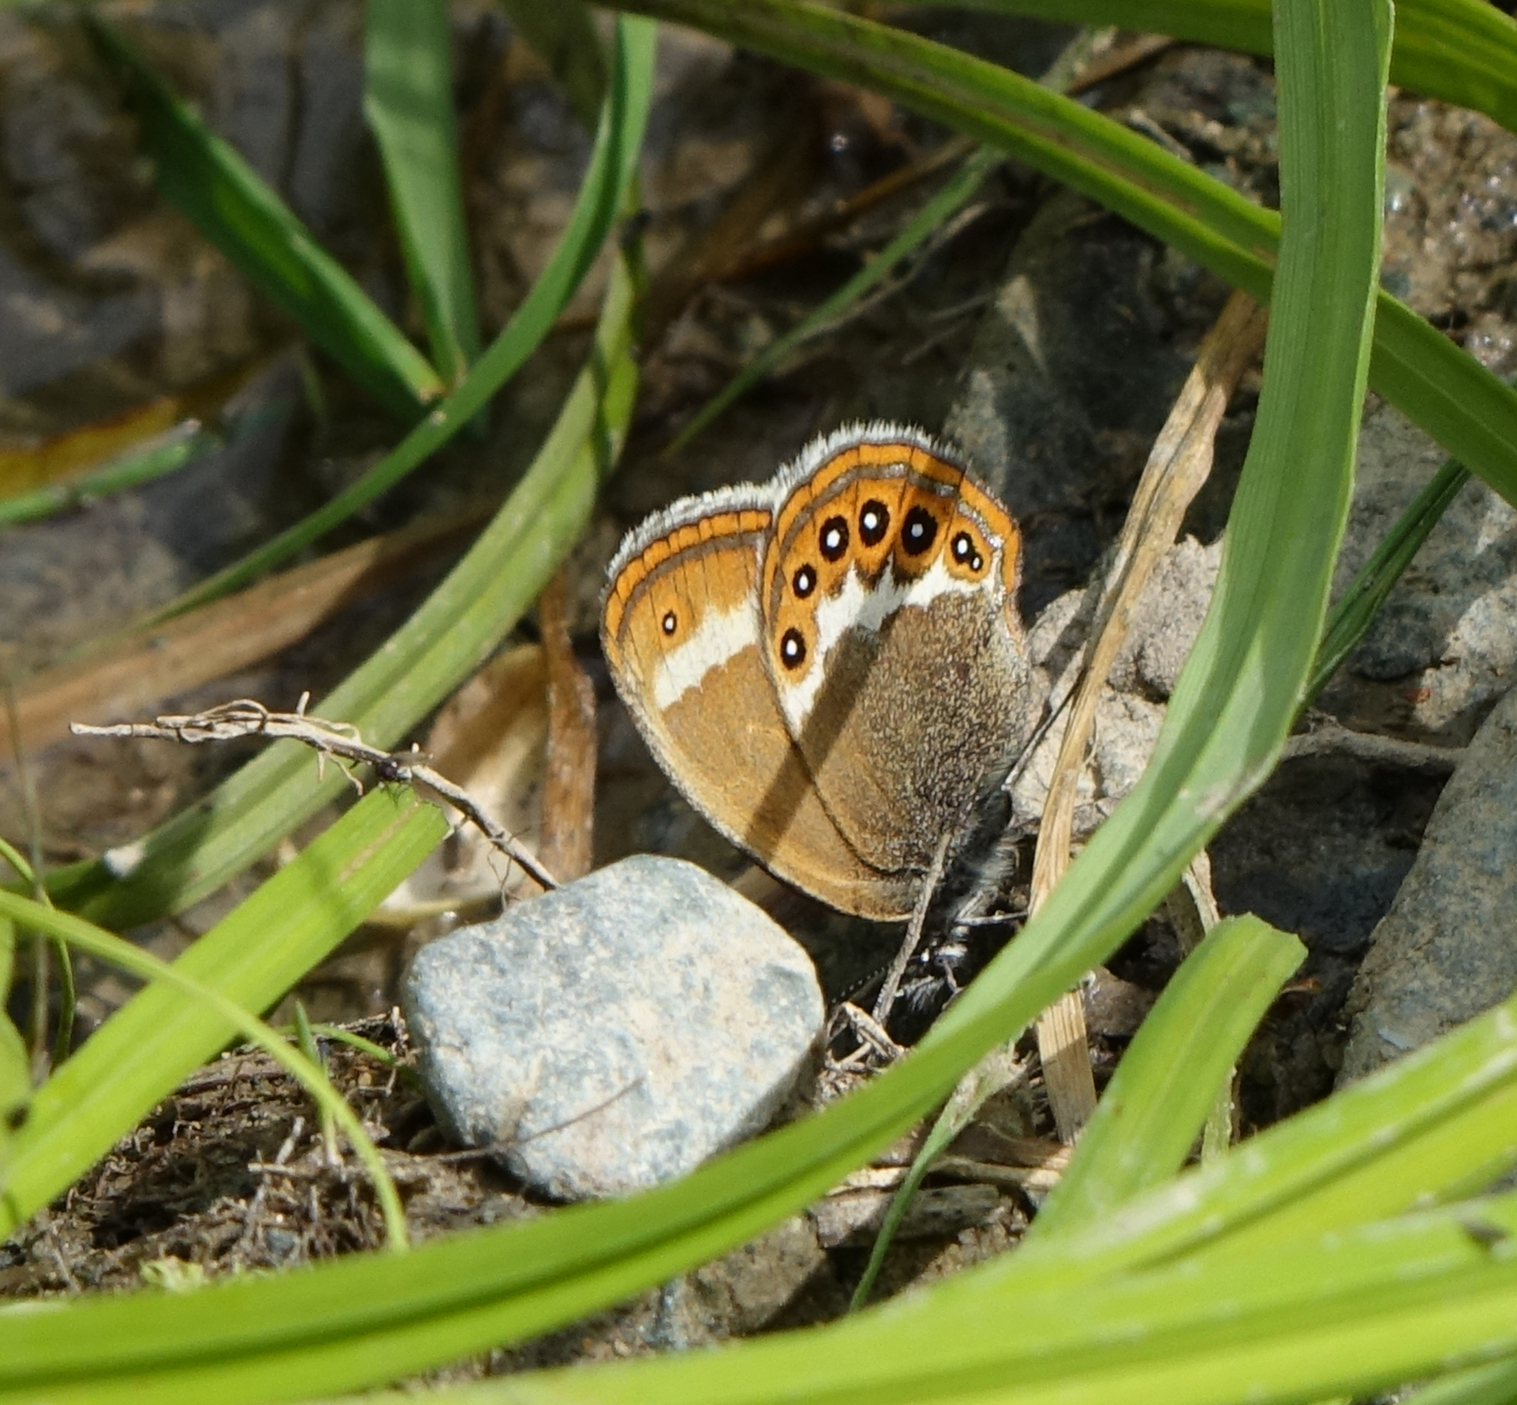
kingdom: Animalia
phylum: Arthropoda
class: Insecta
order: Lepidoptera
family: Nymphalidae
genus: Coenonympha
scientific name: Coenonympha hero
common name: Scarce heath
